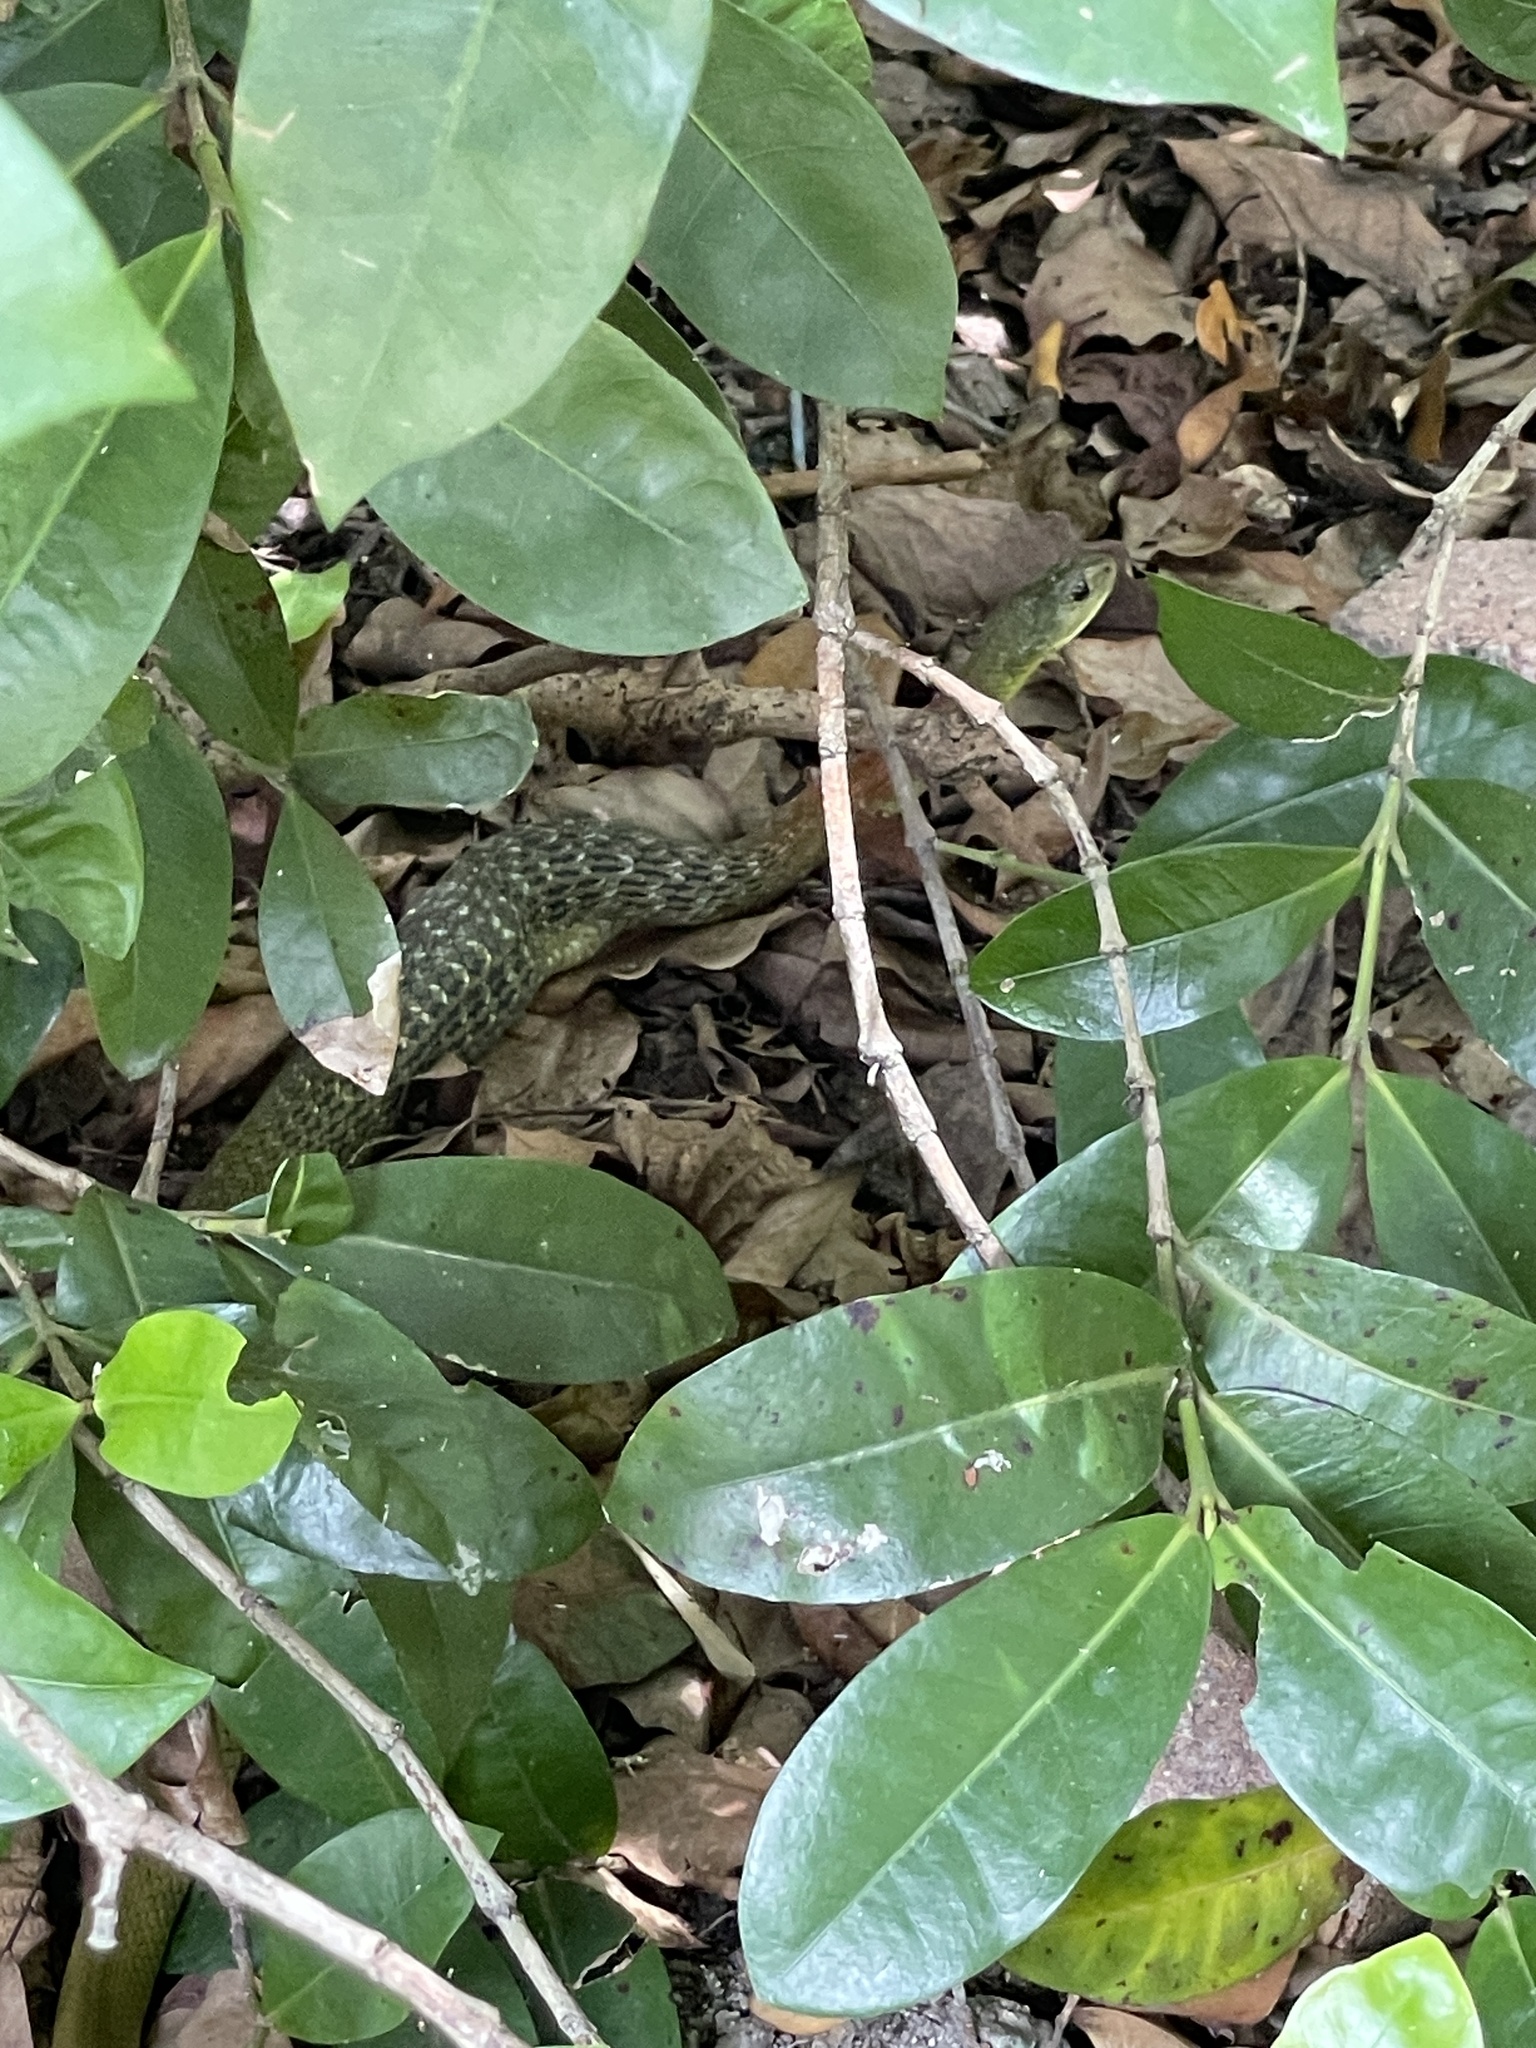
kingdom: Animalia
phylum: Chordata
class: Squamata
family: Colubridae
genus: Rhabdophis
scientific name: Rhabdophis helleri
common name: Heller’s red-necked keelback
